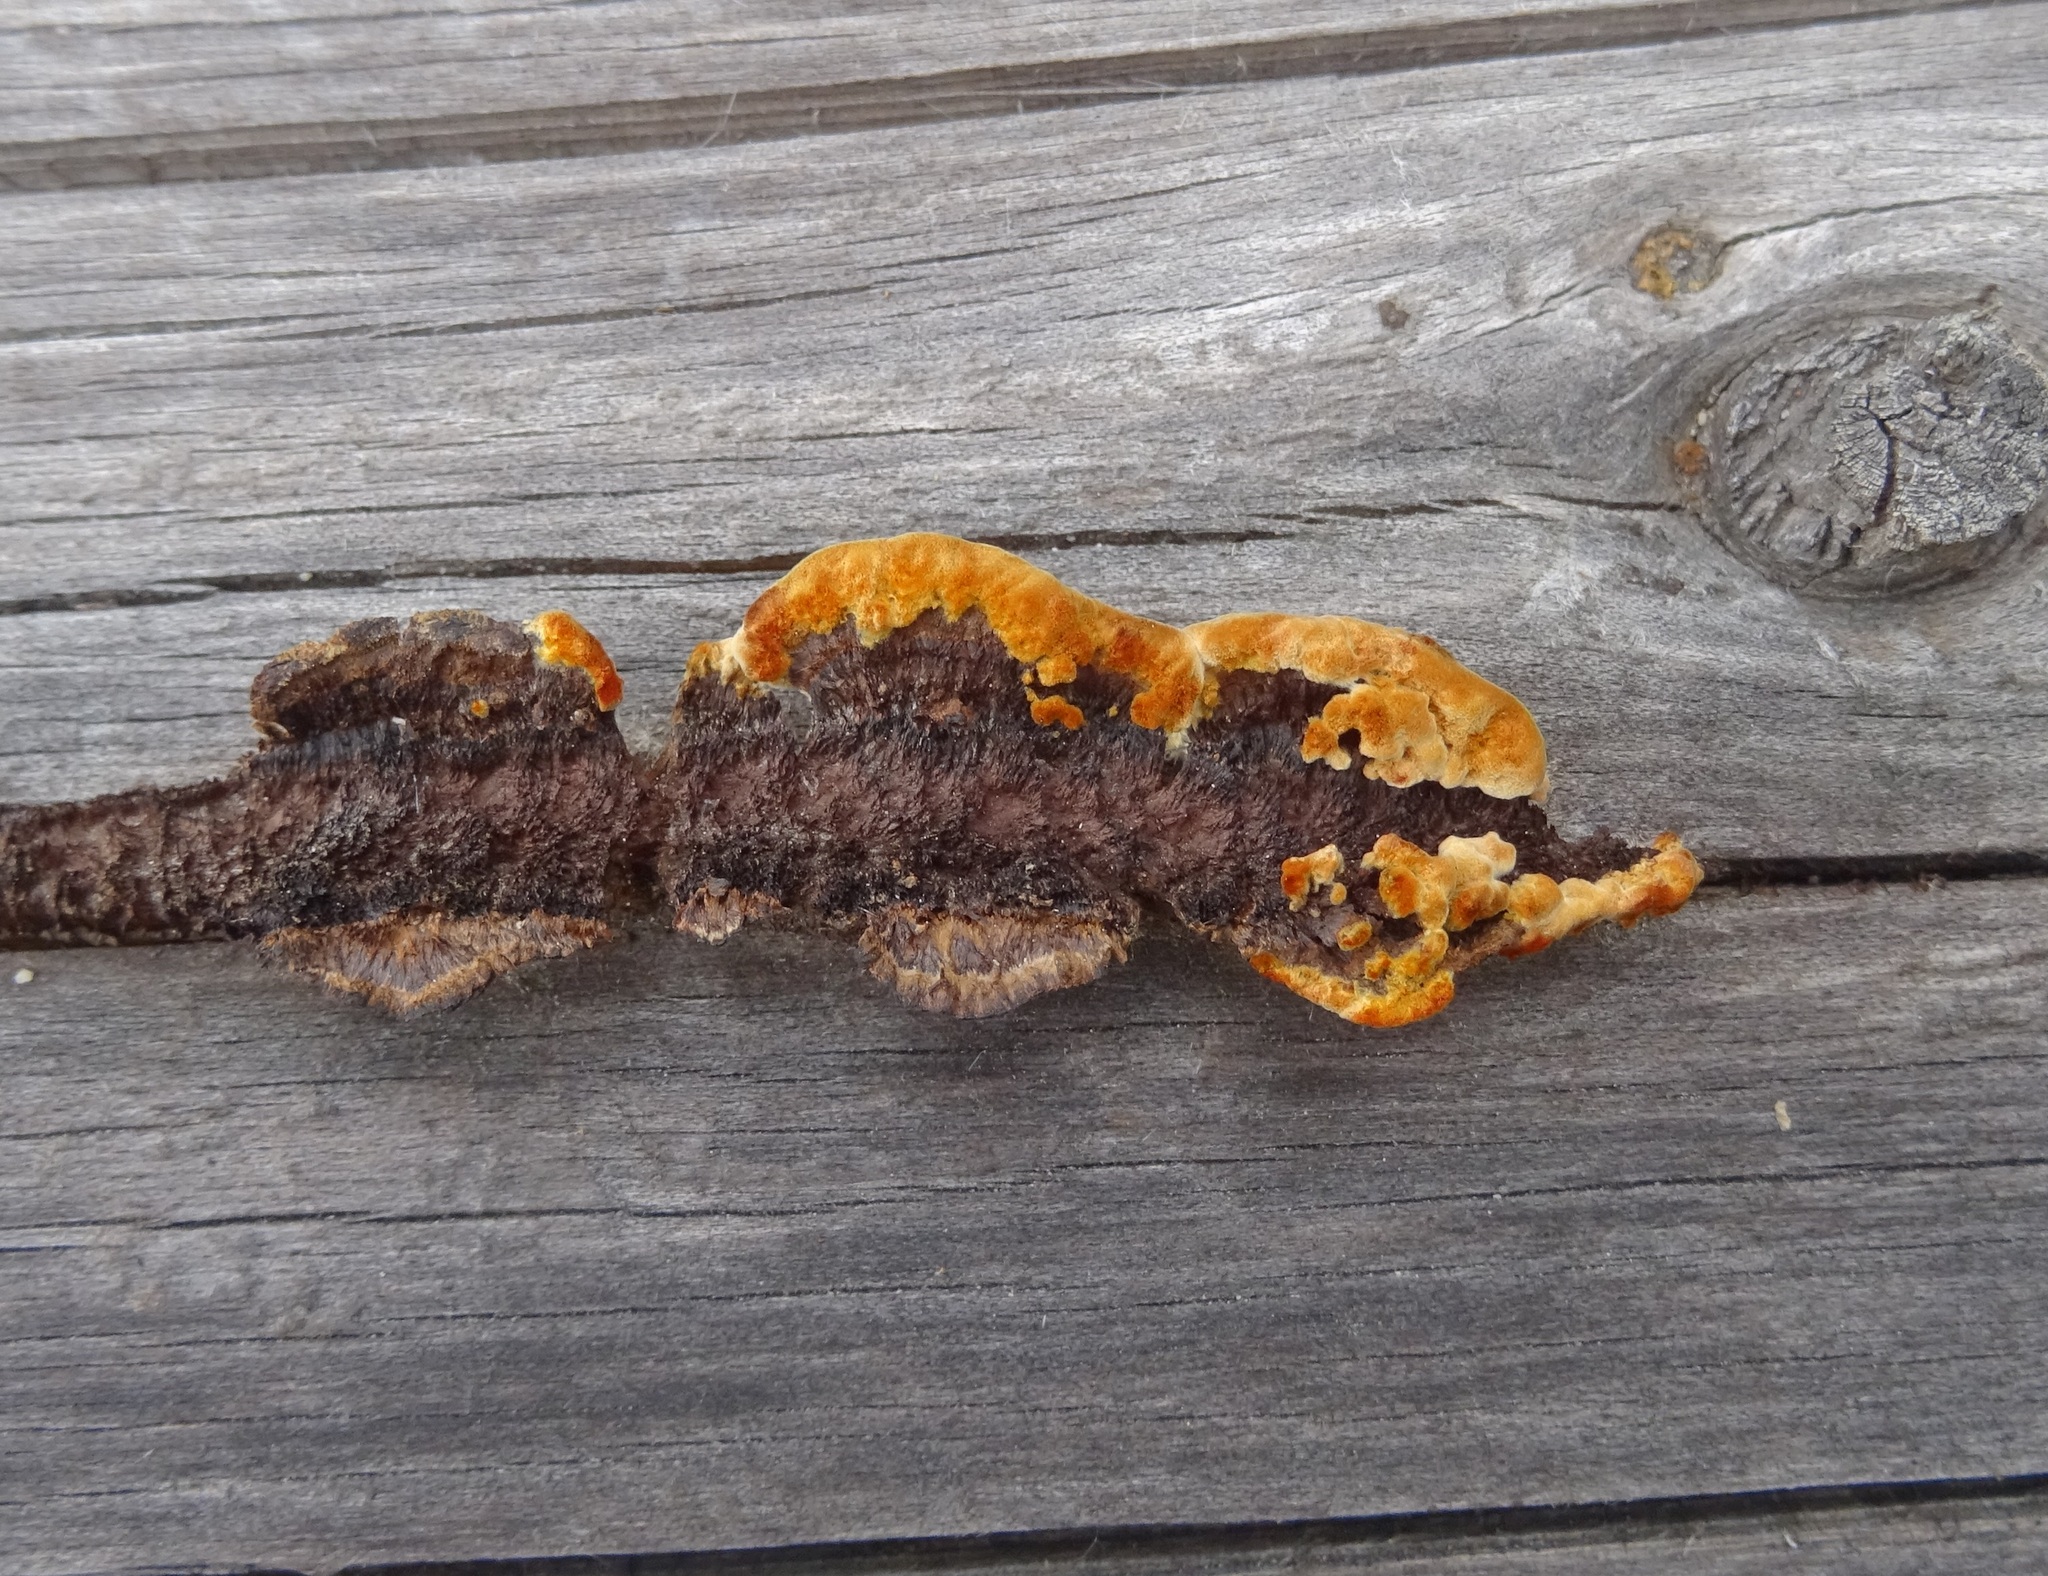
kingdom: Fungi
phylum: Basidiomycota
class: Agaricomycetes
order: Gloeophyllales
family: Gloeophyllaceae
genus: Gloeophyllum
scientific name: Gloeophyllum sepiarium
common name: Conifer mazegill
